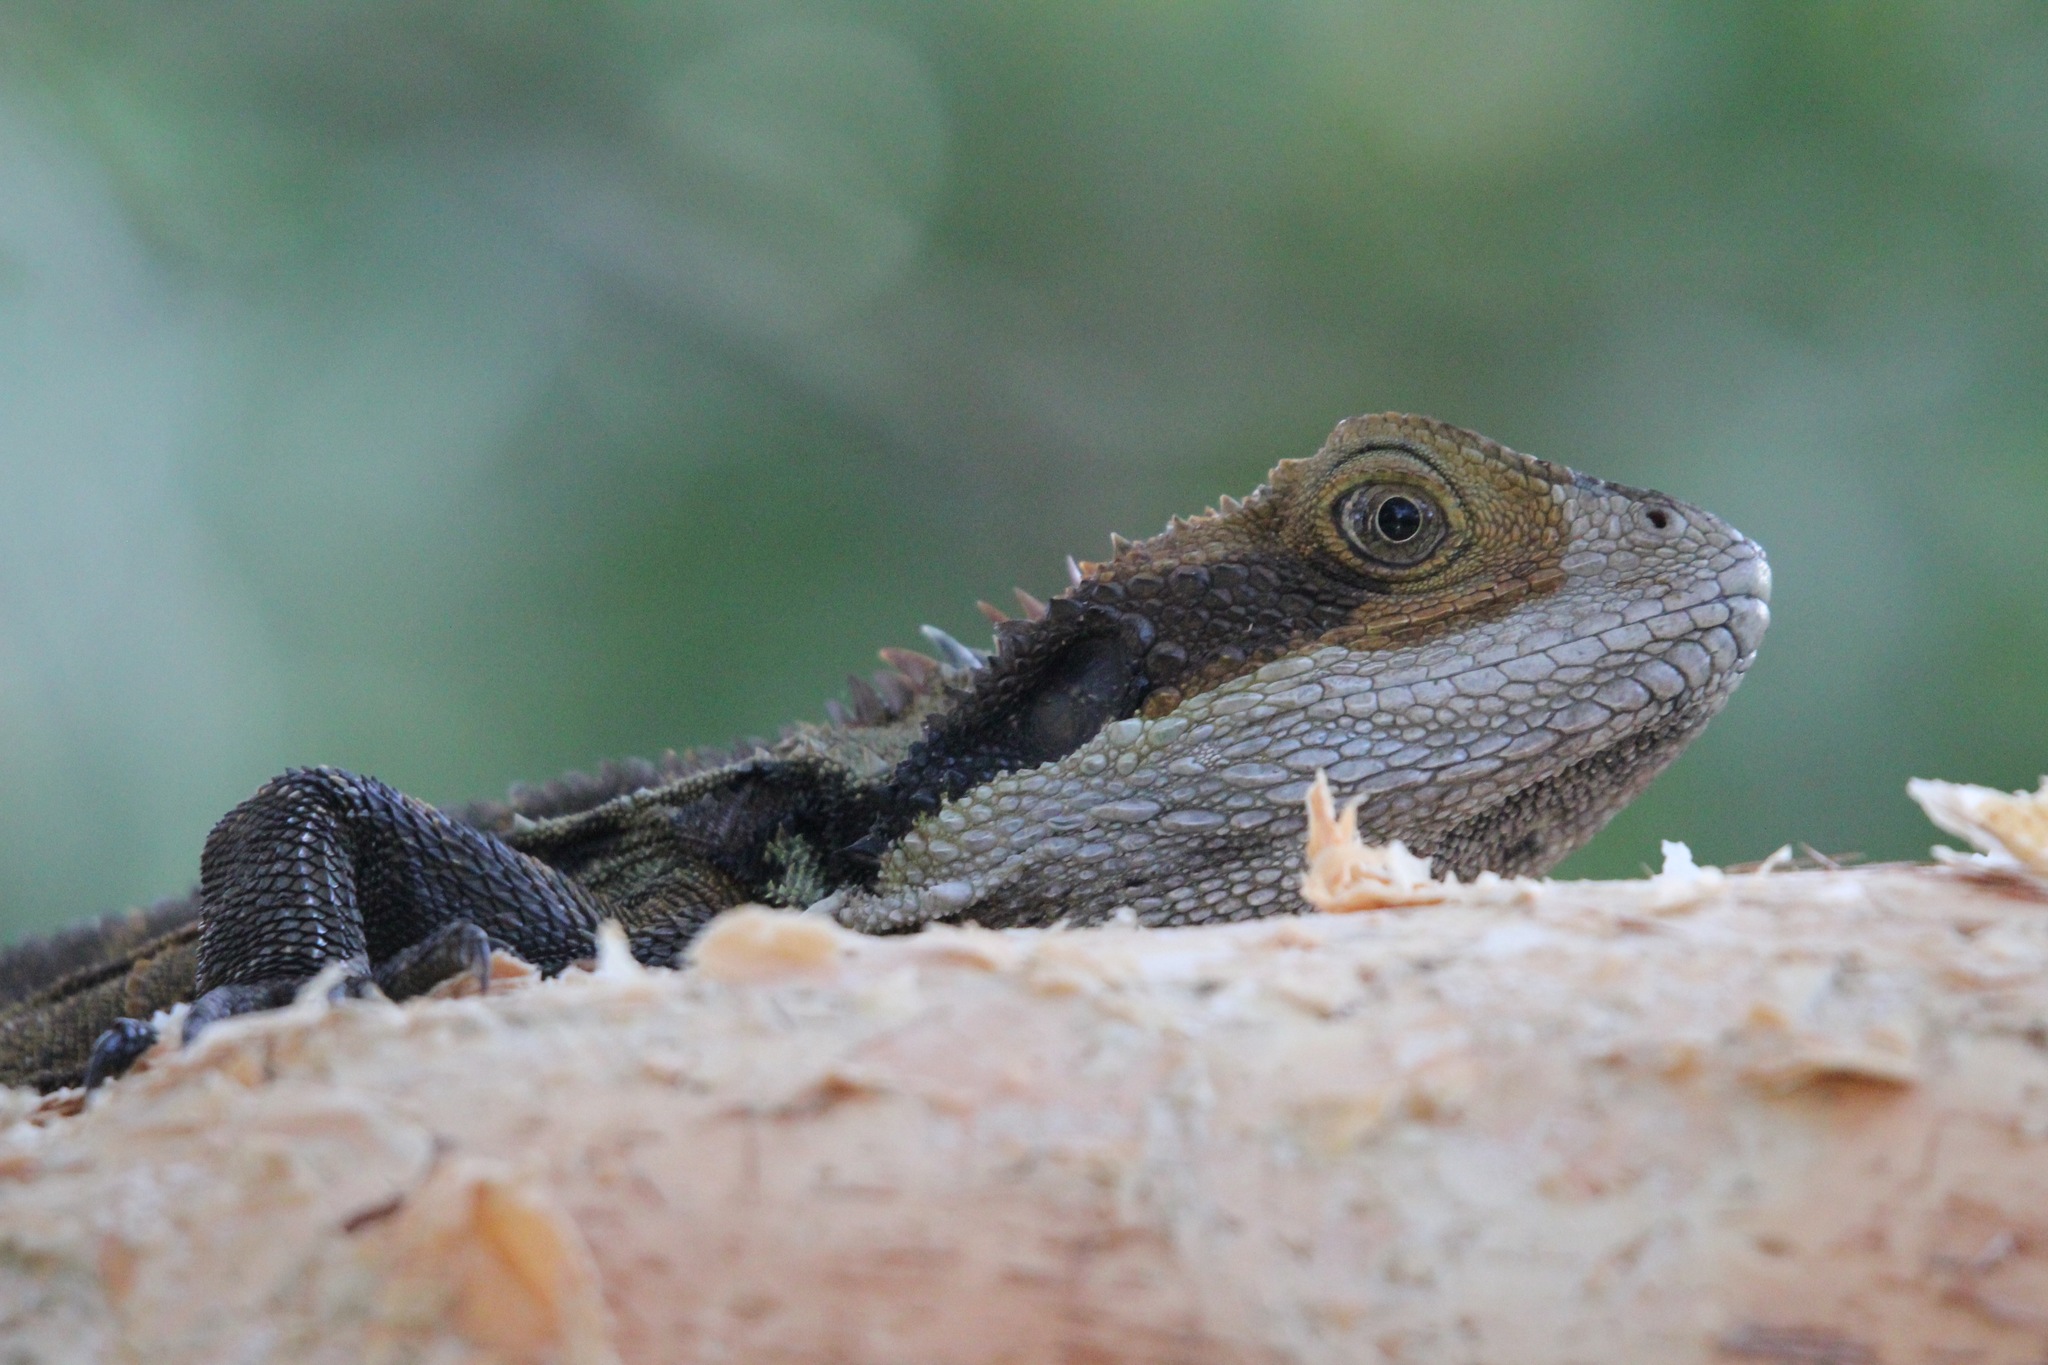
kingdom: Animalia
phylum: Chordata
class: Squamata
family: Agamidae
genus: Intellagama
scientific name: Intellagama lesueurii
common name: Eastern water dragon
